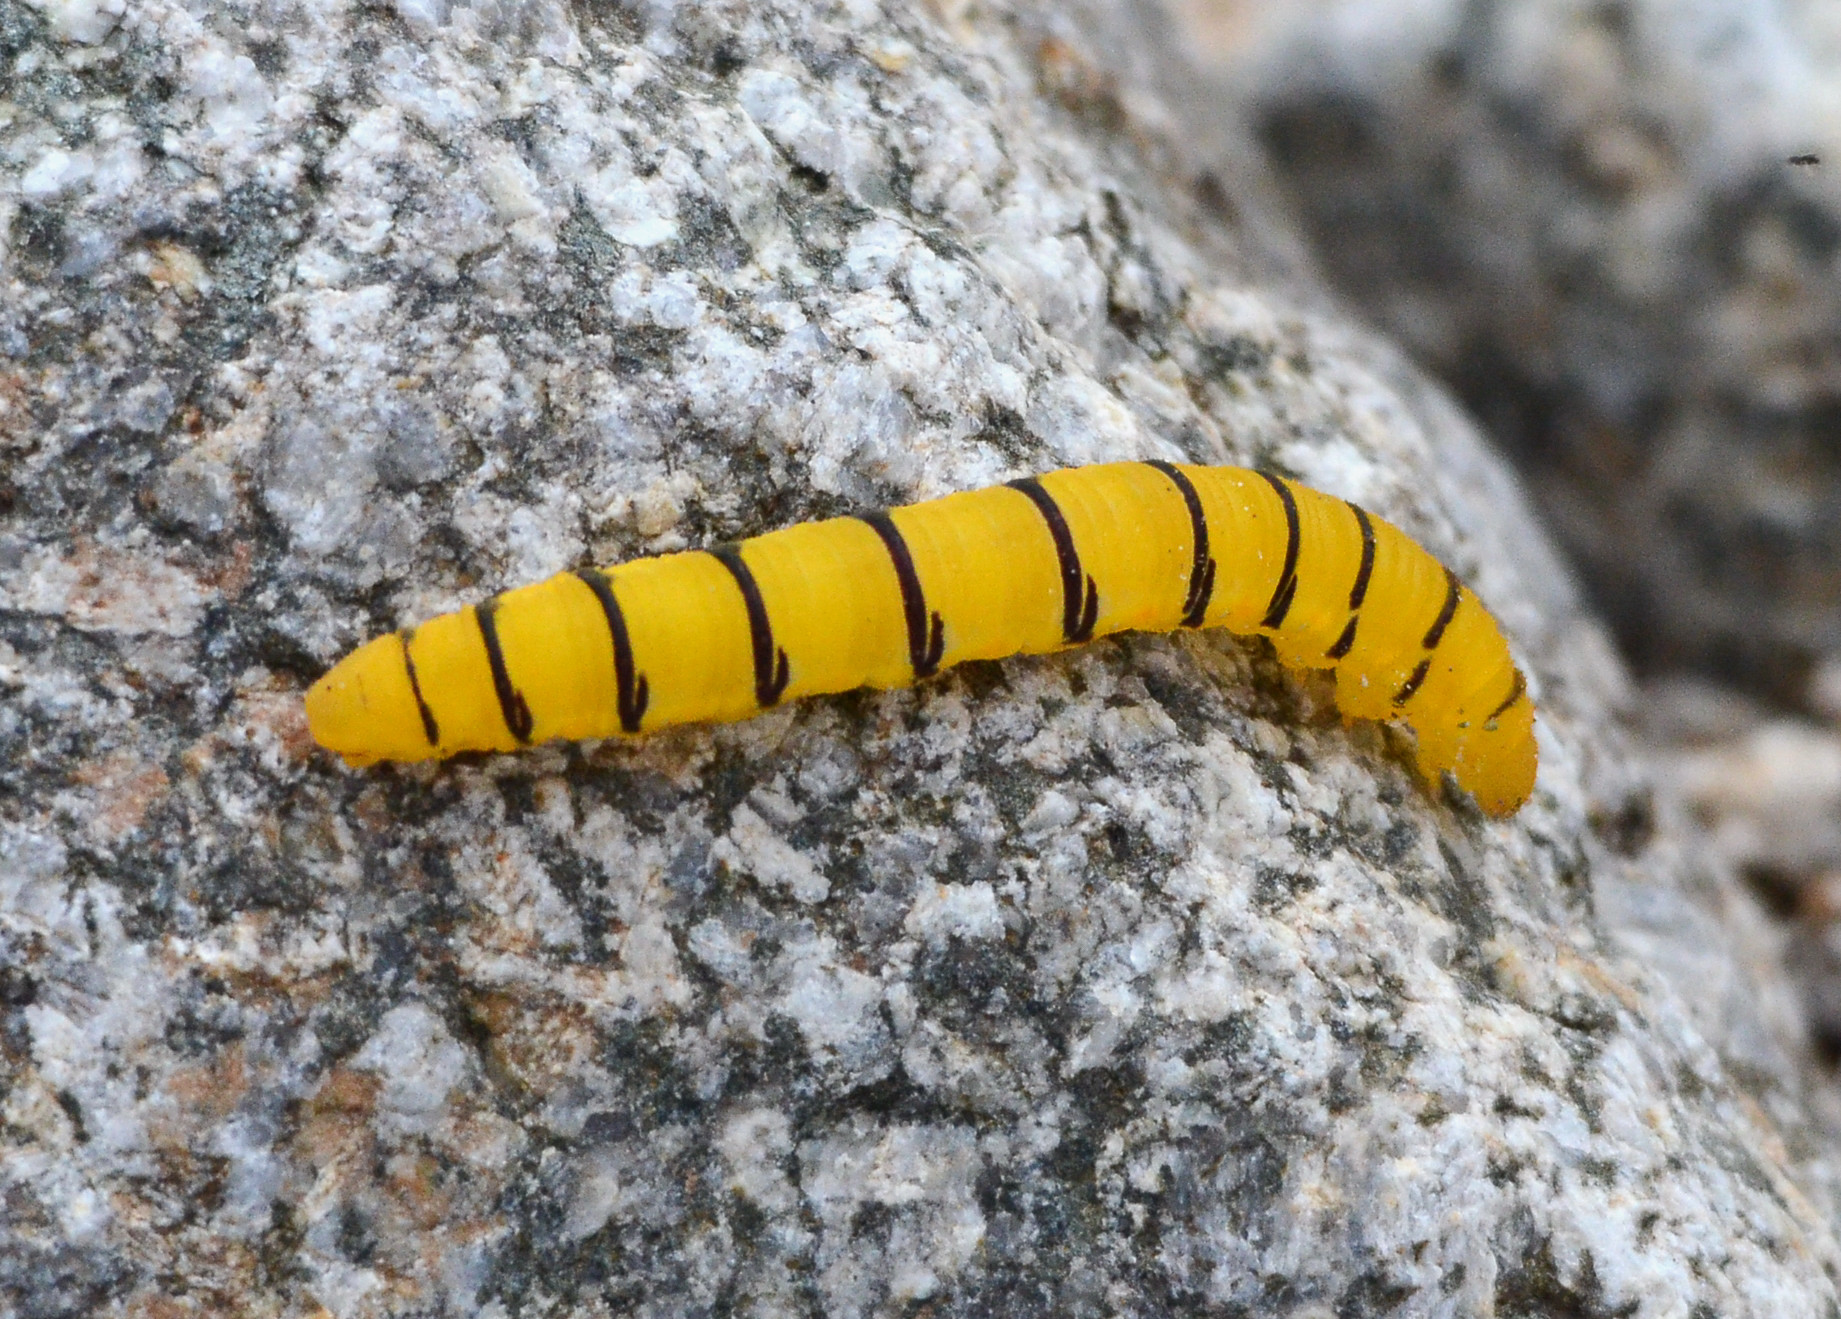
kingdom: Animalia
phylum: Arthropoda
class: Insecta
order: Lepidoptera
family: Pieridae
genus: Phoebis
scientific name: Phoebis sennae
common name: Cloudless sulphur
